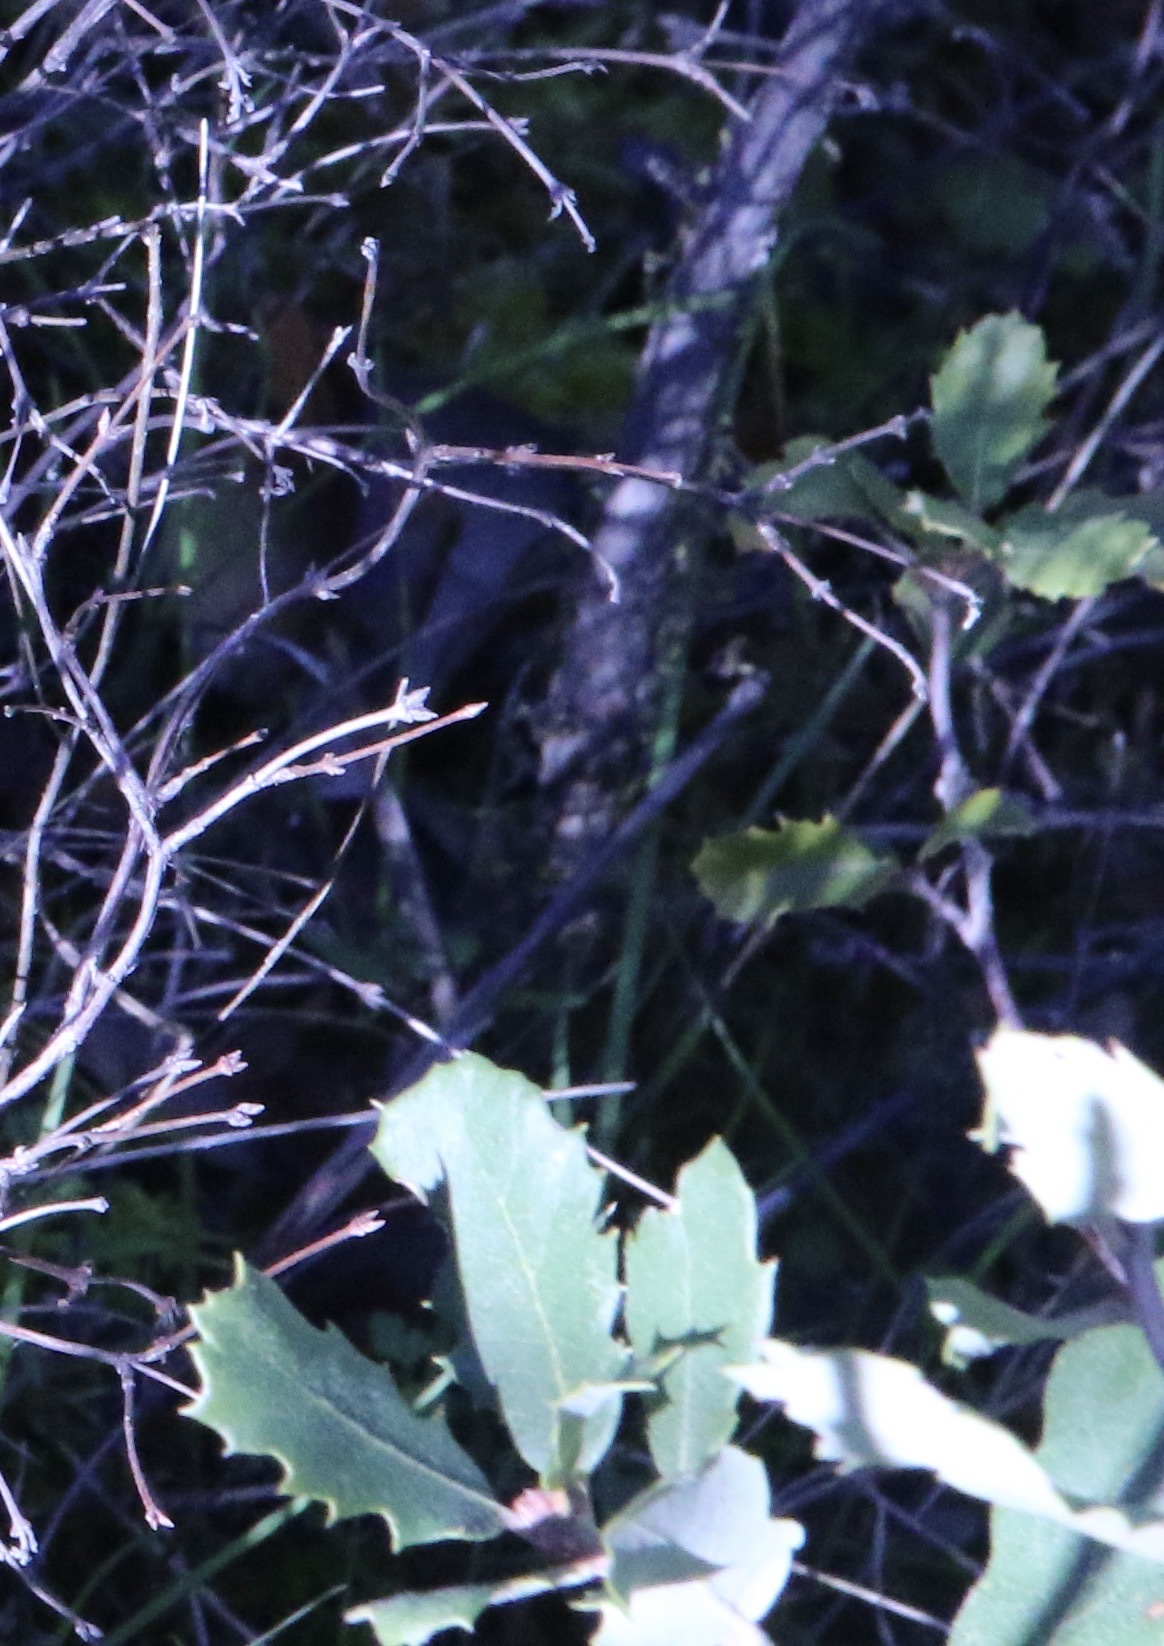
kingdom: Plantae
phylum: Tracheophyta
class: Magnoliopsida
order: Fagales
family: Fagaceae
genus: Quercus
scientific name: Quercus berberidifolia
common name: California scrub oak
